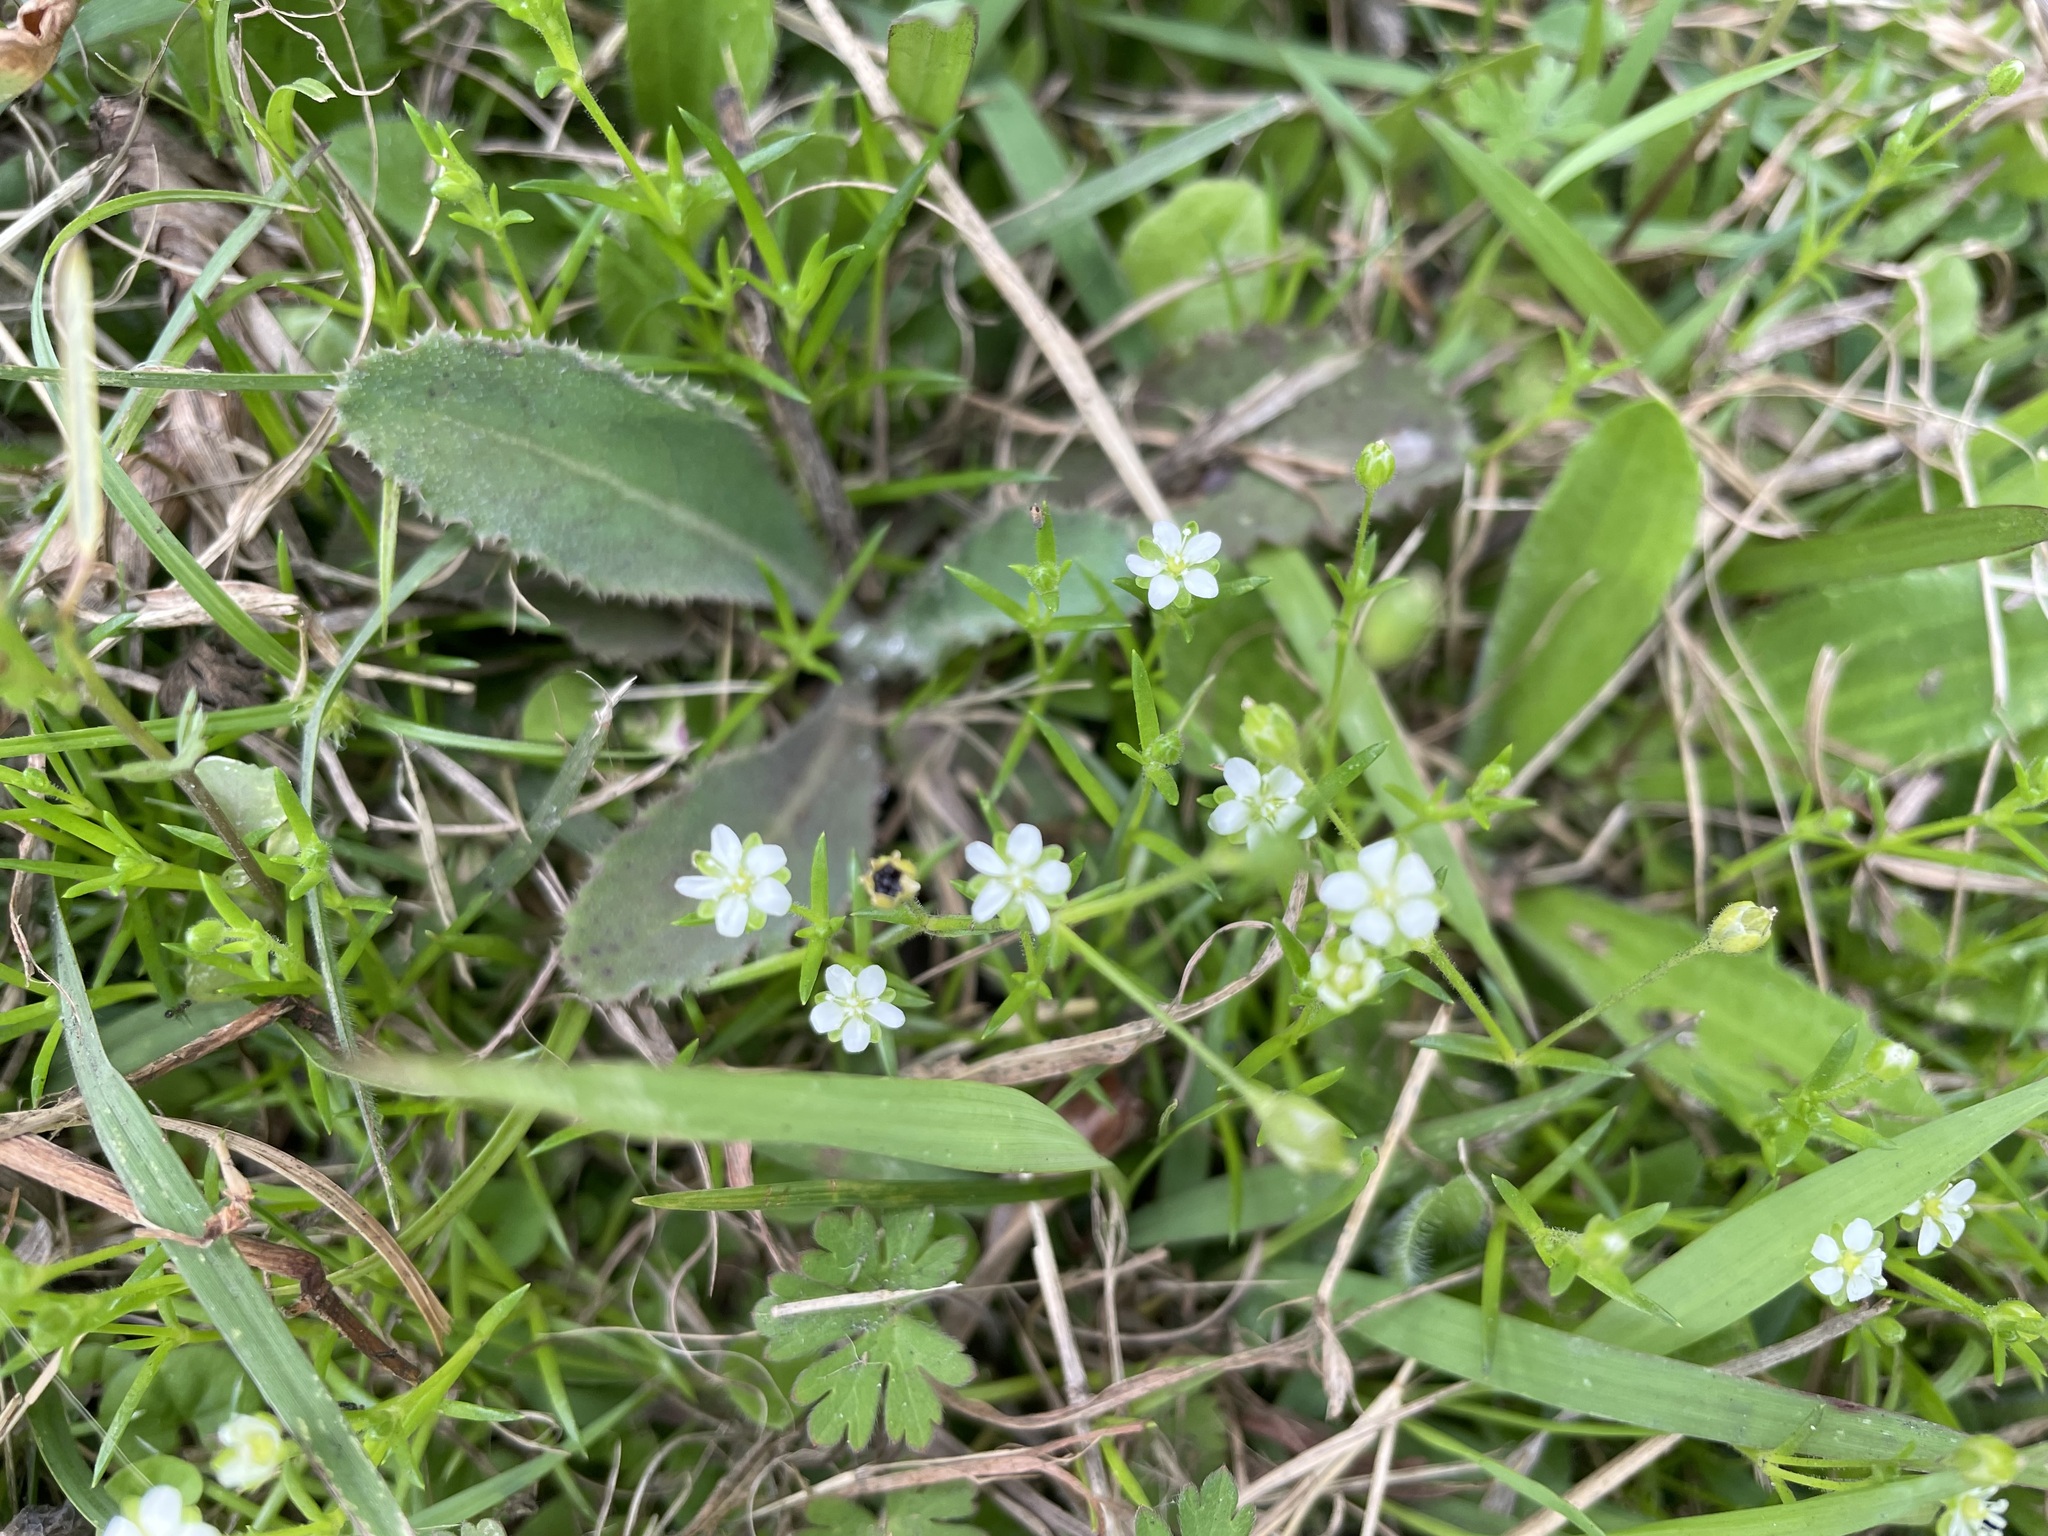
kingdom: Plantae
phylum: Tracheophyta
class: Magnoliopsida
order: Caryophyllales
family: Caryophyllaceae
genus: Sagina
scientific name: Sagina japonica
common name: Japanese pearlwort
